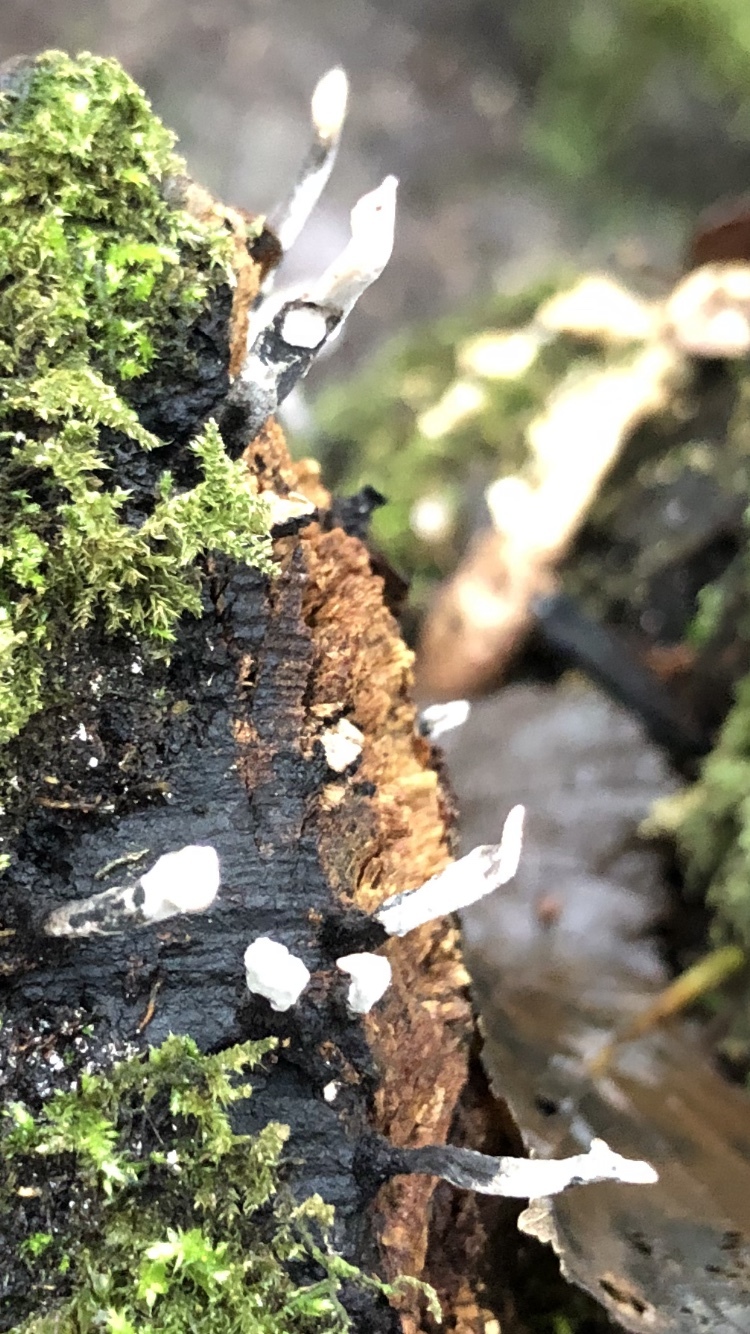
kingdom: Fungi
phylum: Ascomycota
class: Sordariomycetes
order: Xylariales
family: Xylariaceae
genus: Xylaria
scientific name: Xylaria hypoxylon
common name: Candle-snuff fungus
